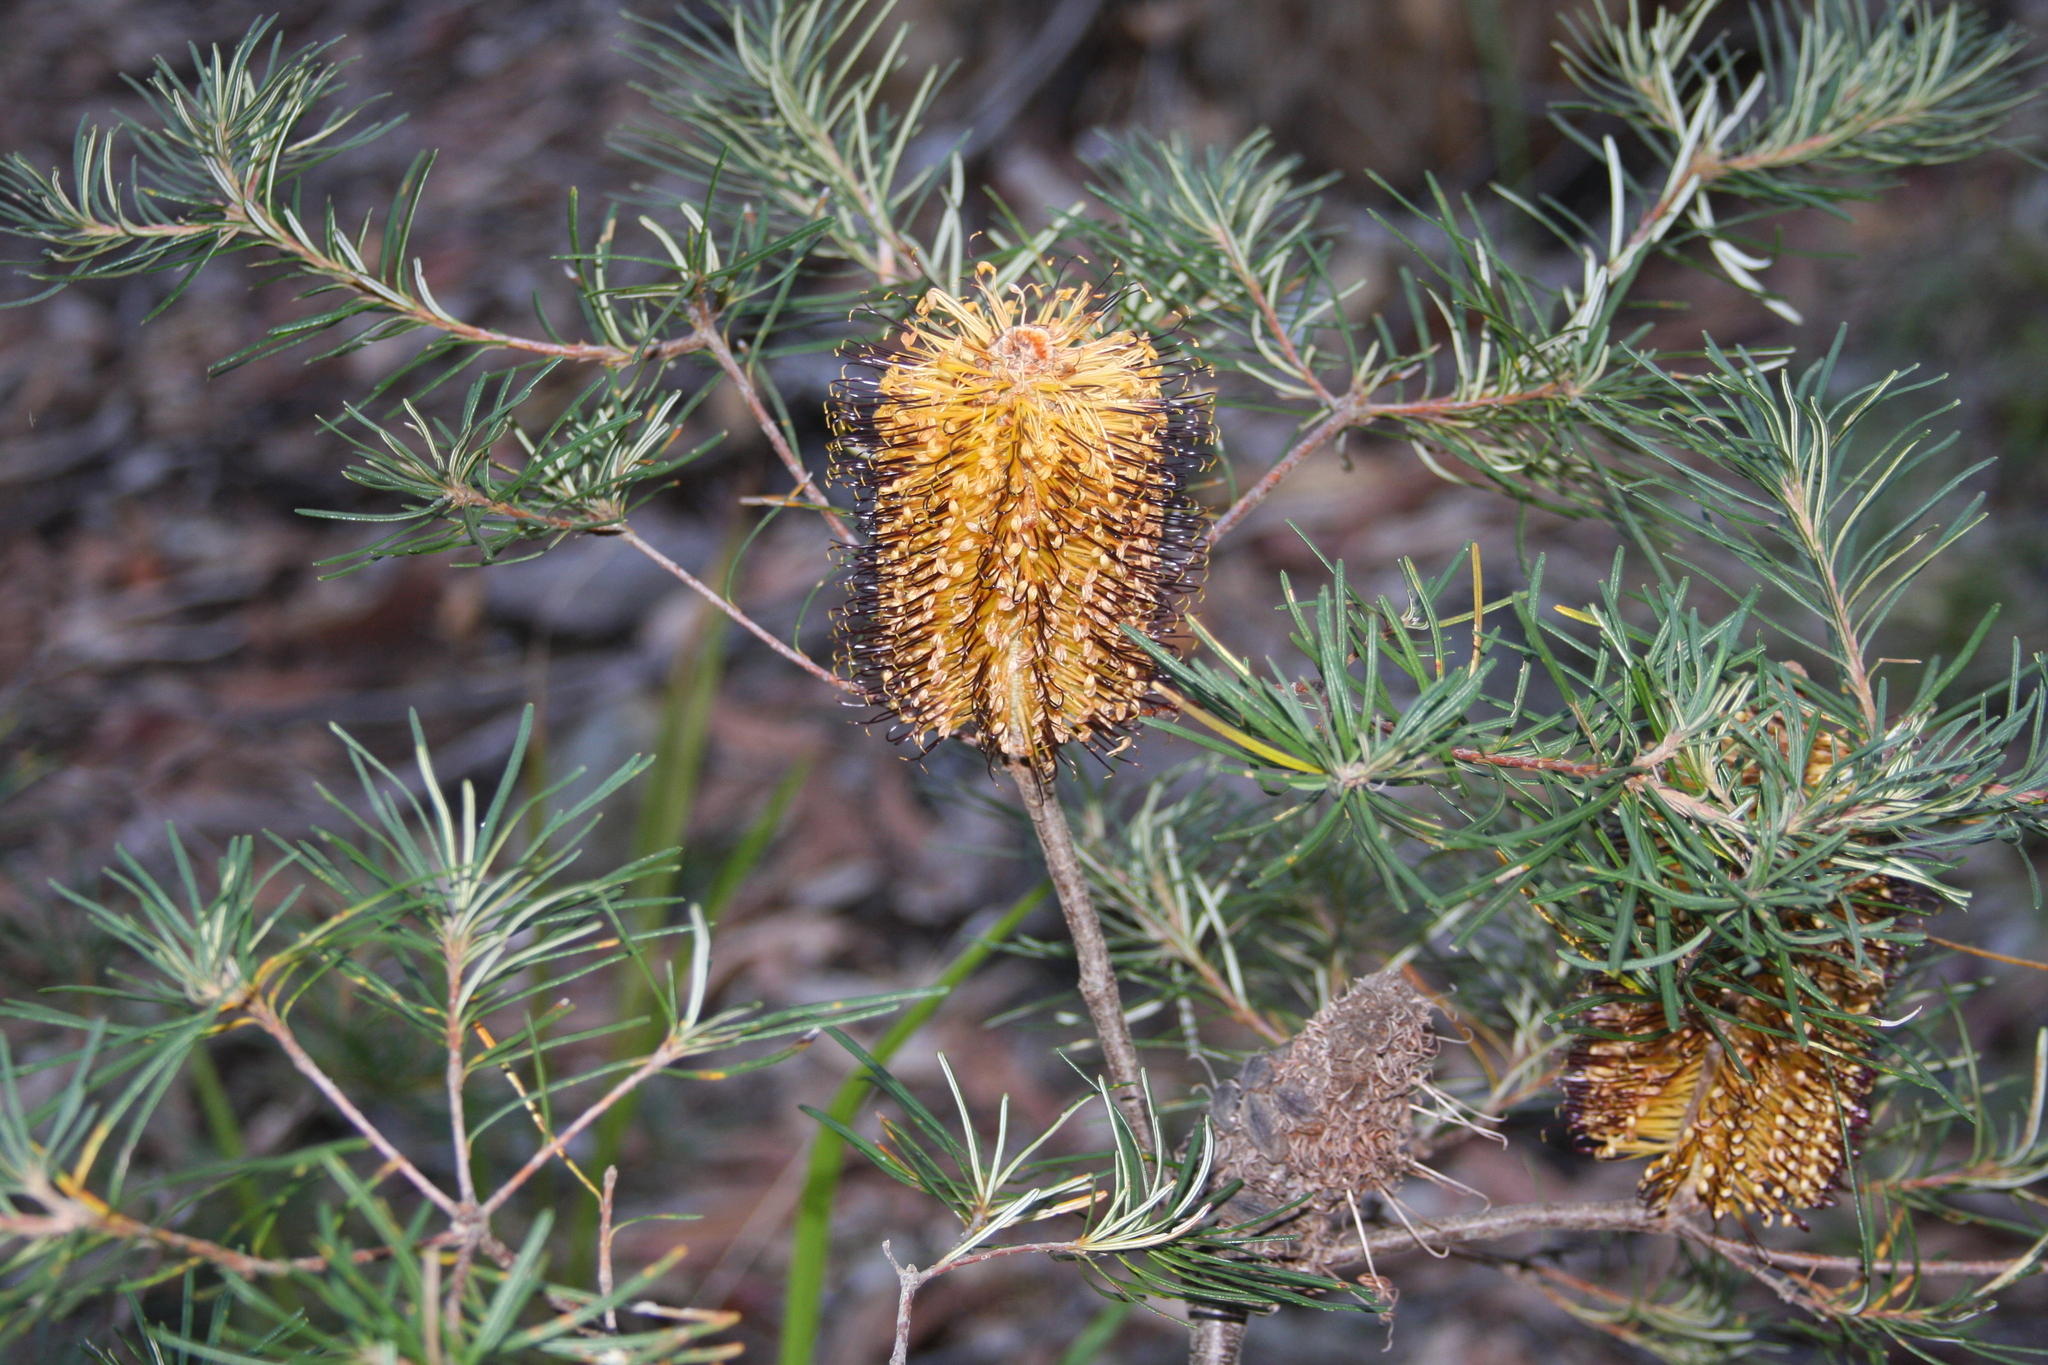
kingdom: Plantae
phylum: Tracheophyta
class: Magnoliopsida
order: Proteales
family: Proteaceae
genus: Banksia
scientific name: Banksia spinulosa
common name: Hairpin banksia
